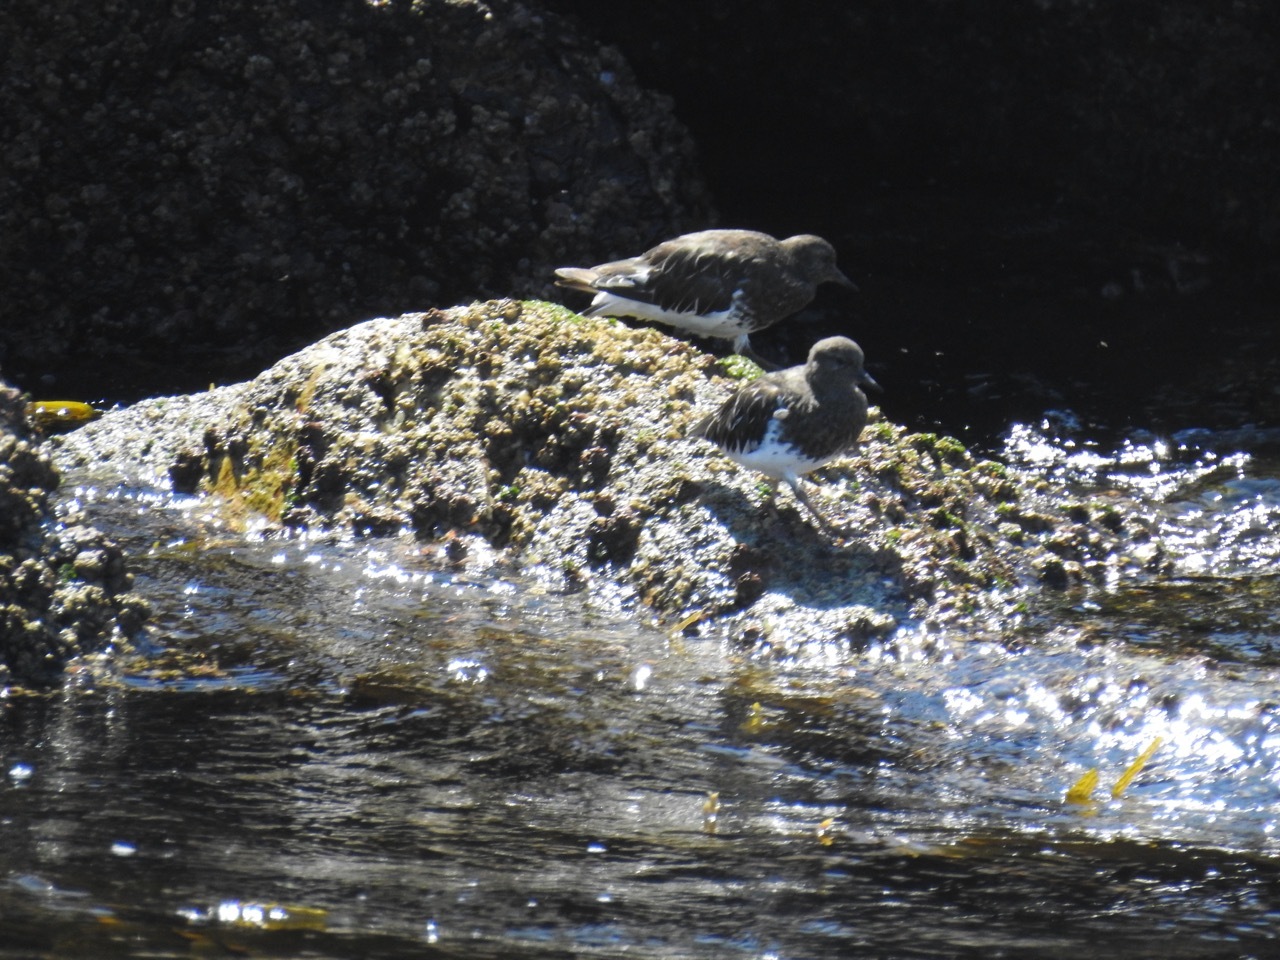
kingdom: Animalia
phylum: Chordata
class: Aves
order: Charadriiformes
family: Scolopacidae
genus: Arenaria
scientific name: Arenaria melanocephala
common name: Black turnstone
